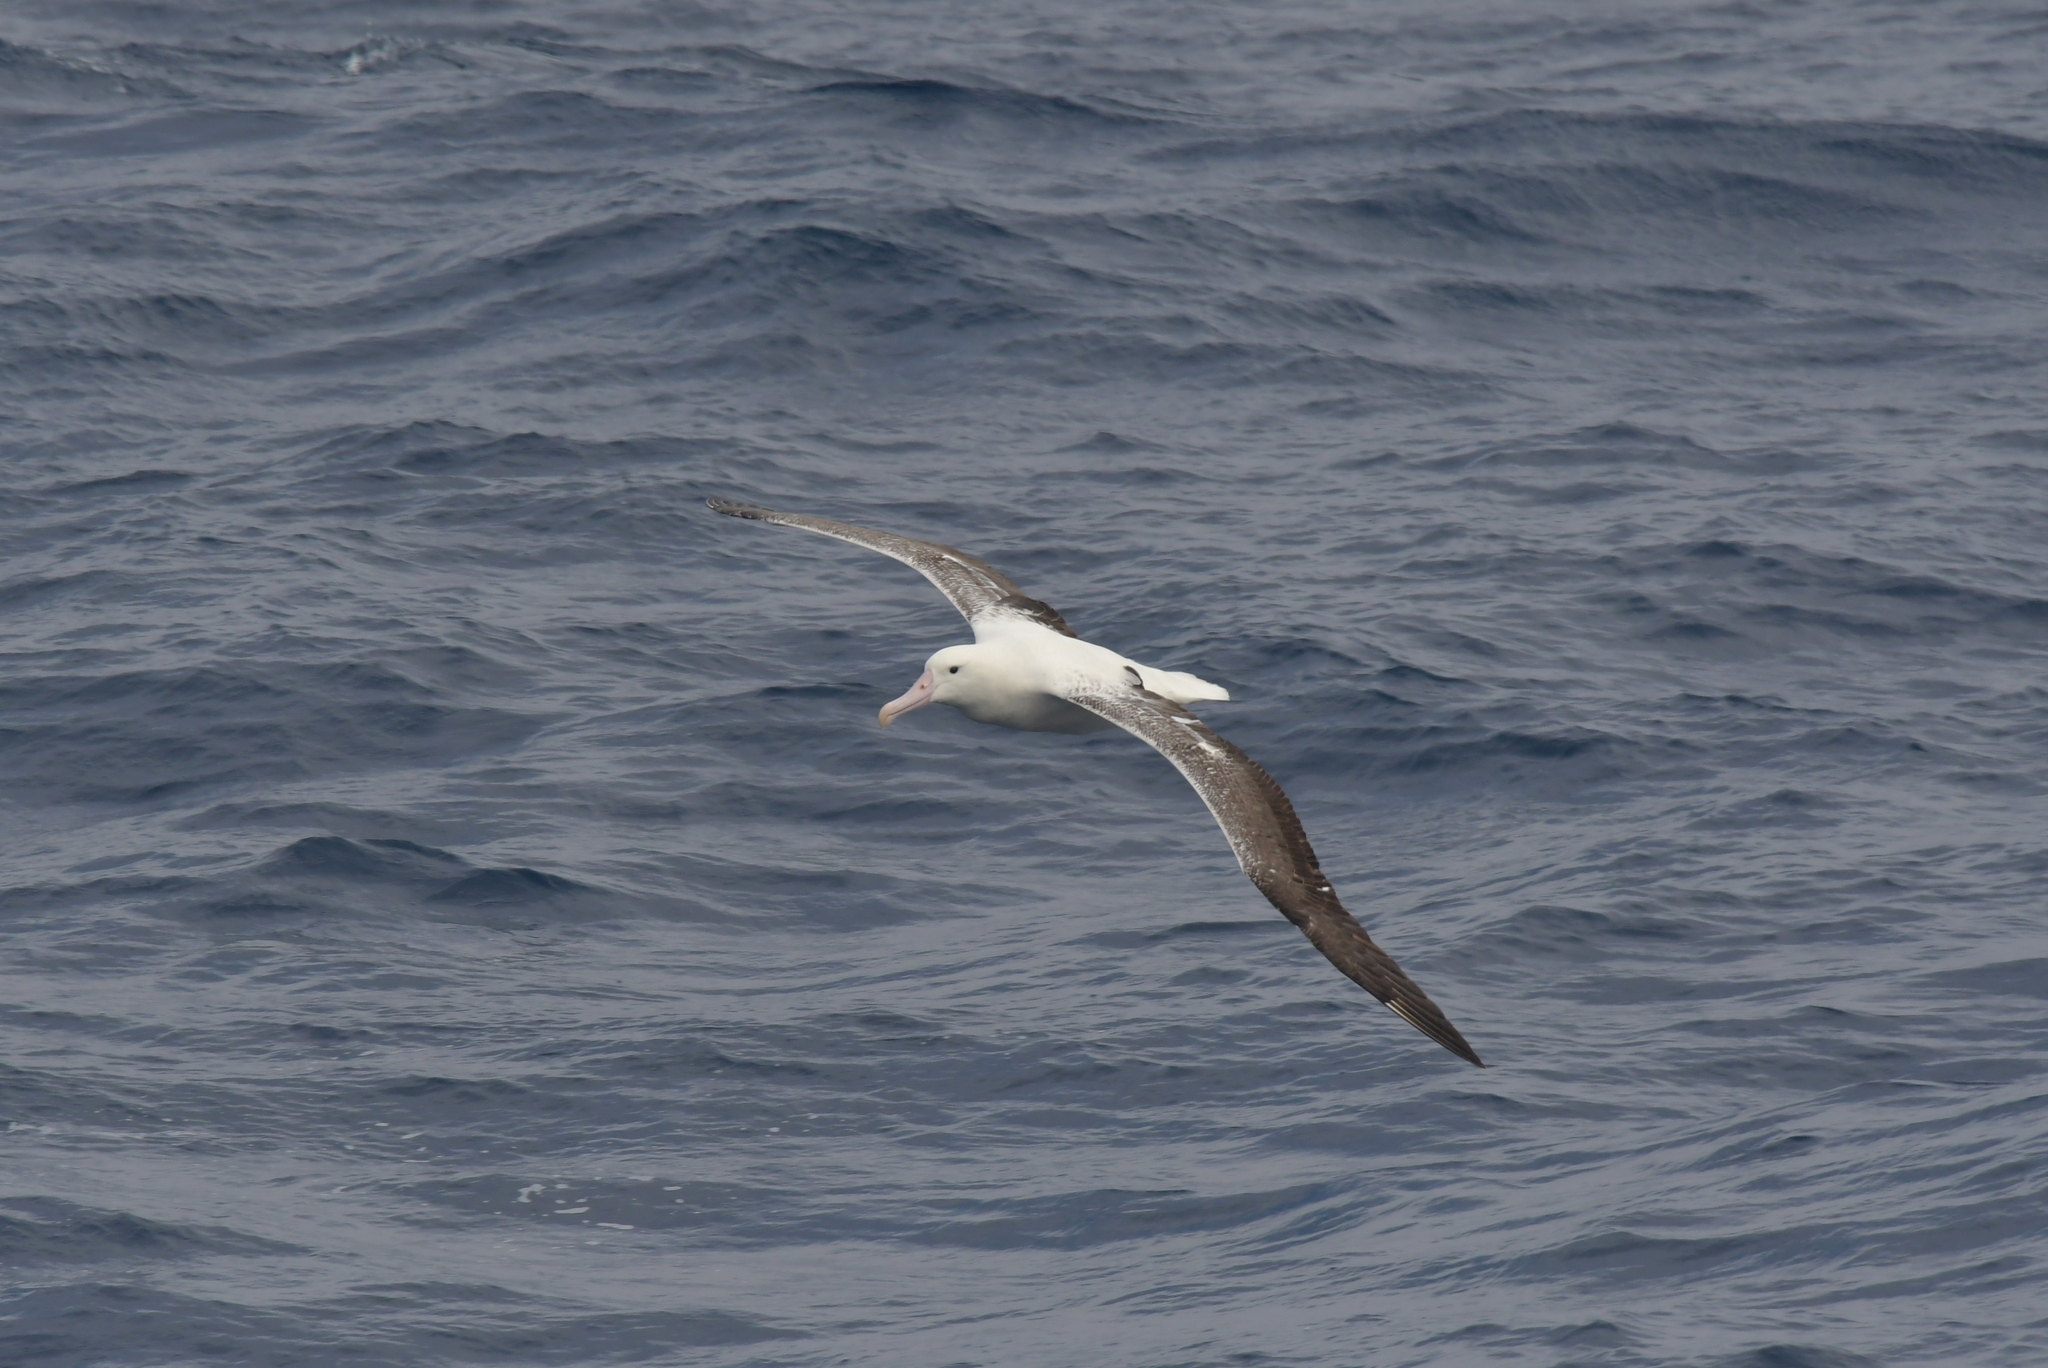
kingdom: Animalia
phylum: Chordata
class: Aves
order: Procellariiformes
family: Diomedeidae
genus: Diomedea
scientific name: Diomedea epomophora
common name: Southern royal albatross
